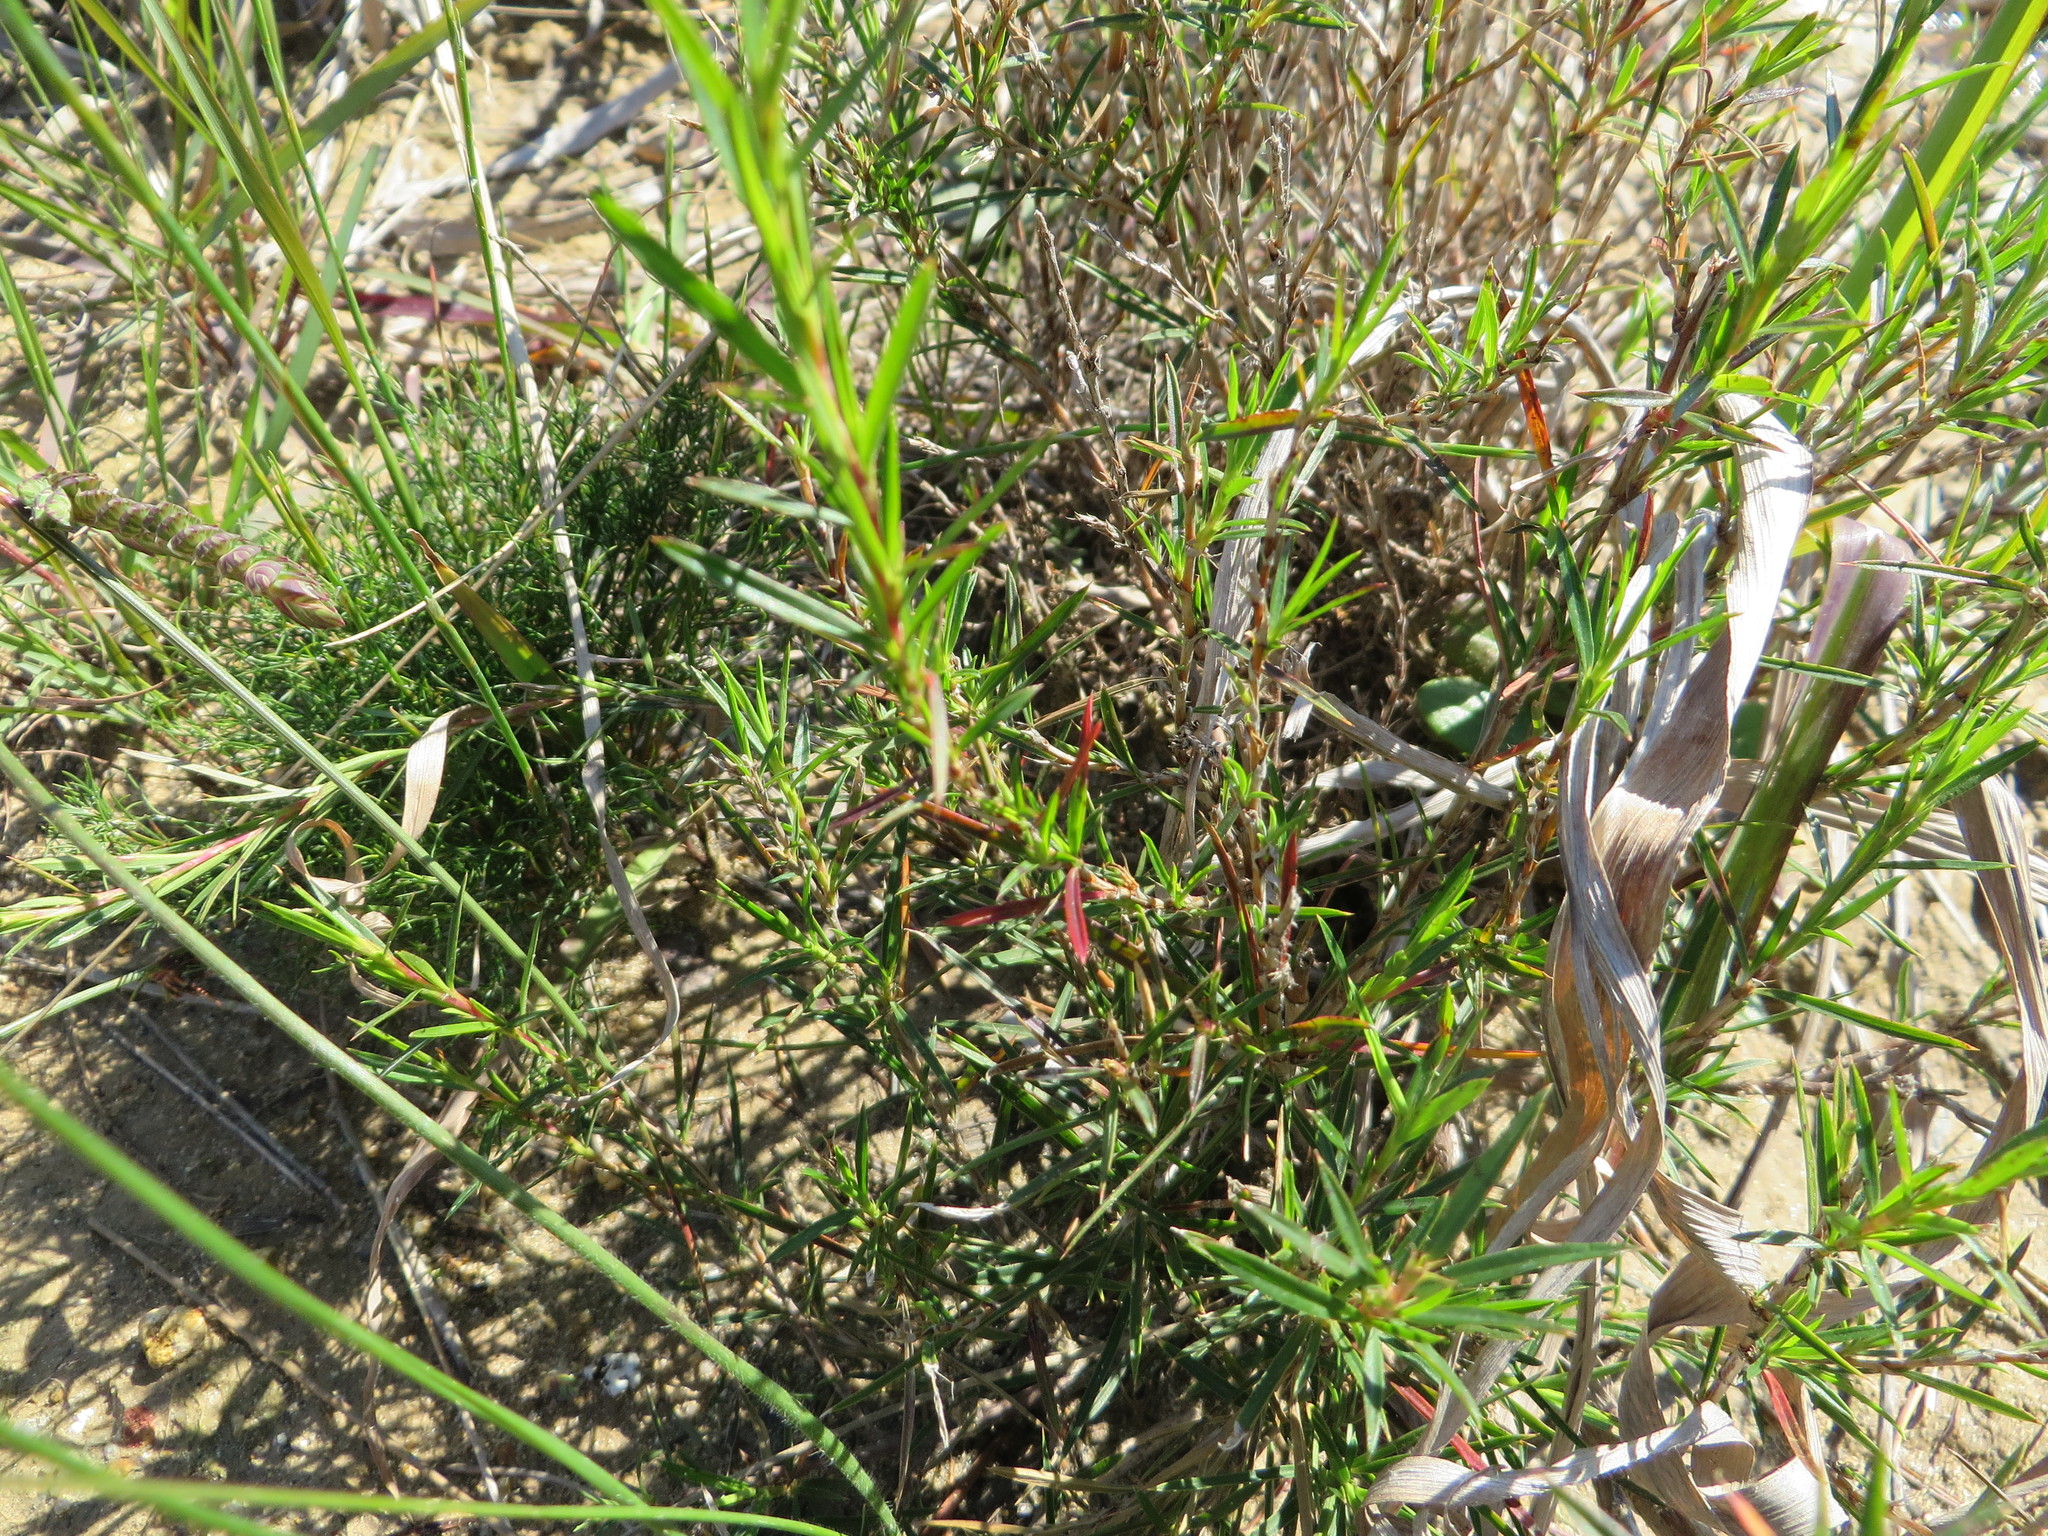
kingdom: Plantae
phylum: Tracheophyta
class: Magnoliopsida
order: Rosales
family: Rosaceae
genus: Cliffortia
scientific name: Cliffortia strobilifera
